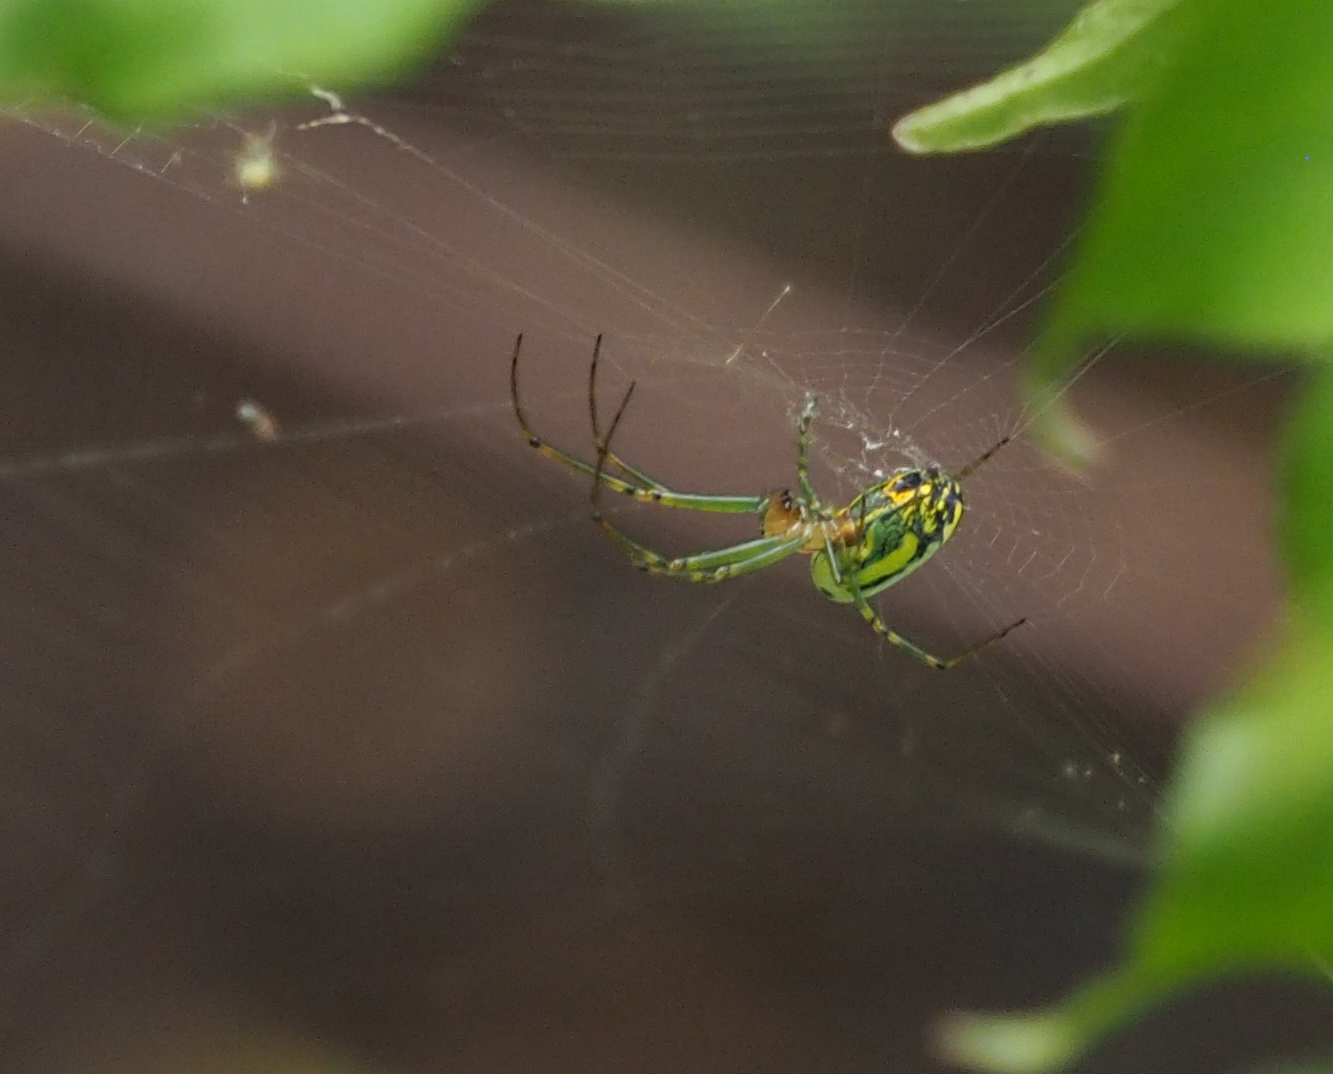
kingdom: Animalia
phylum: Arthropoda
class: Arachnida
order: Araneae
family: Tetragnathidae
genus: Leucauge
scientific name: Leucauge venusta
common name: Longjawed orb weavers
